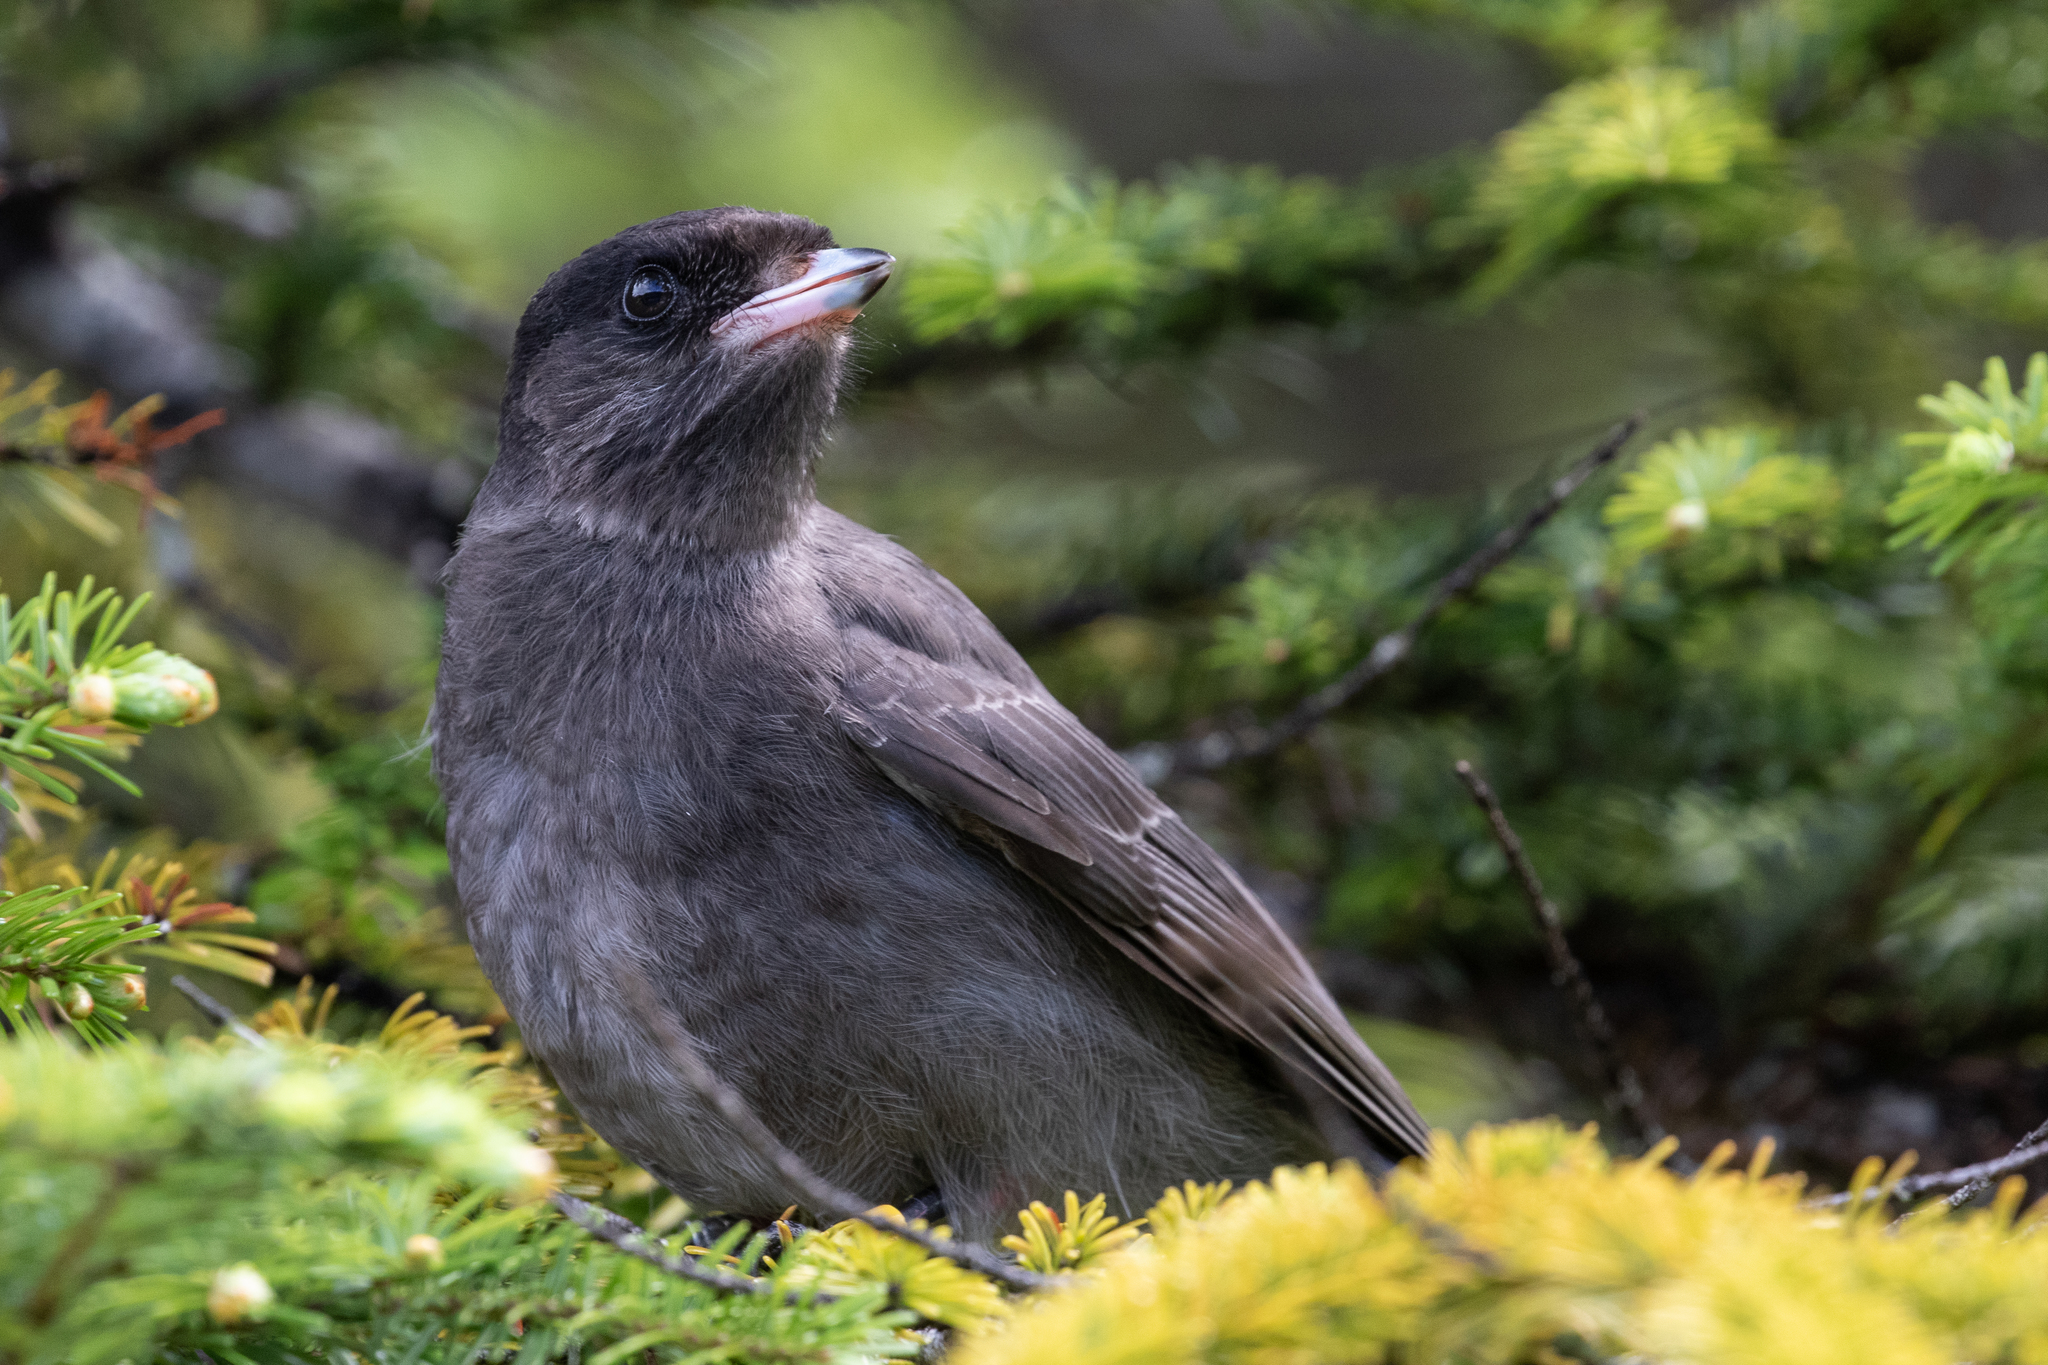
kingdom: Animalia
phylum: Chordata
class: Aves
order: Passeriformes
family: Corvidae
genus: Perisoreus
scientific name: Perisoreus canadensis
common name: Gray jay
